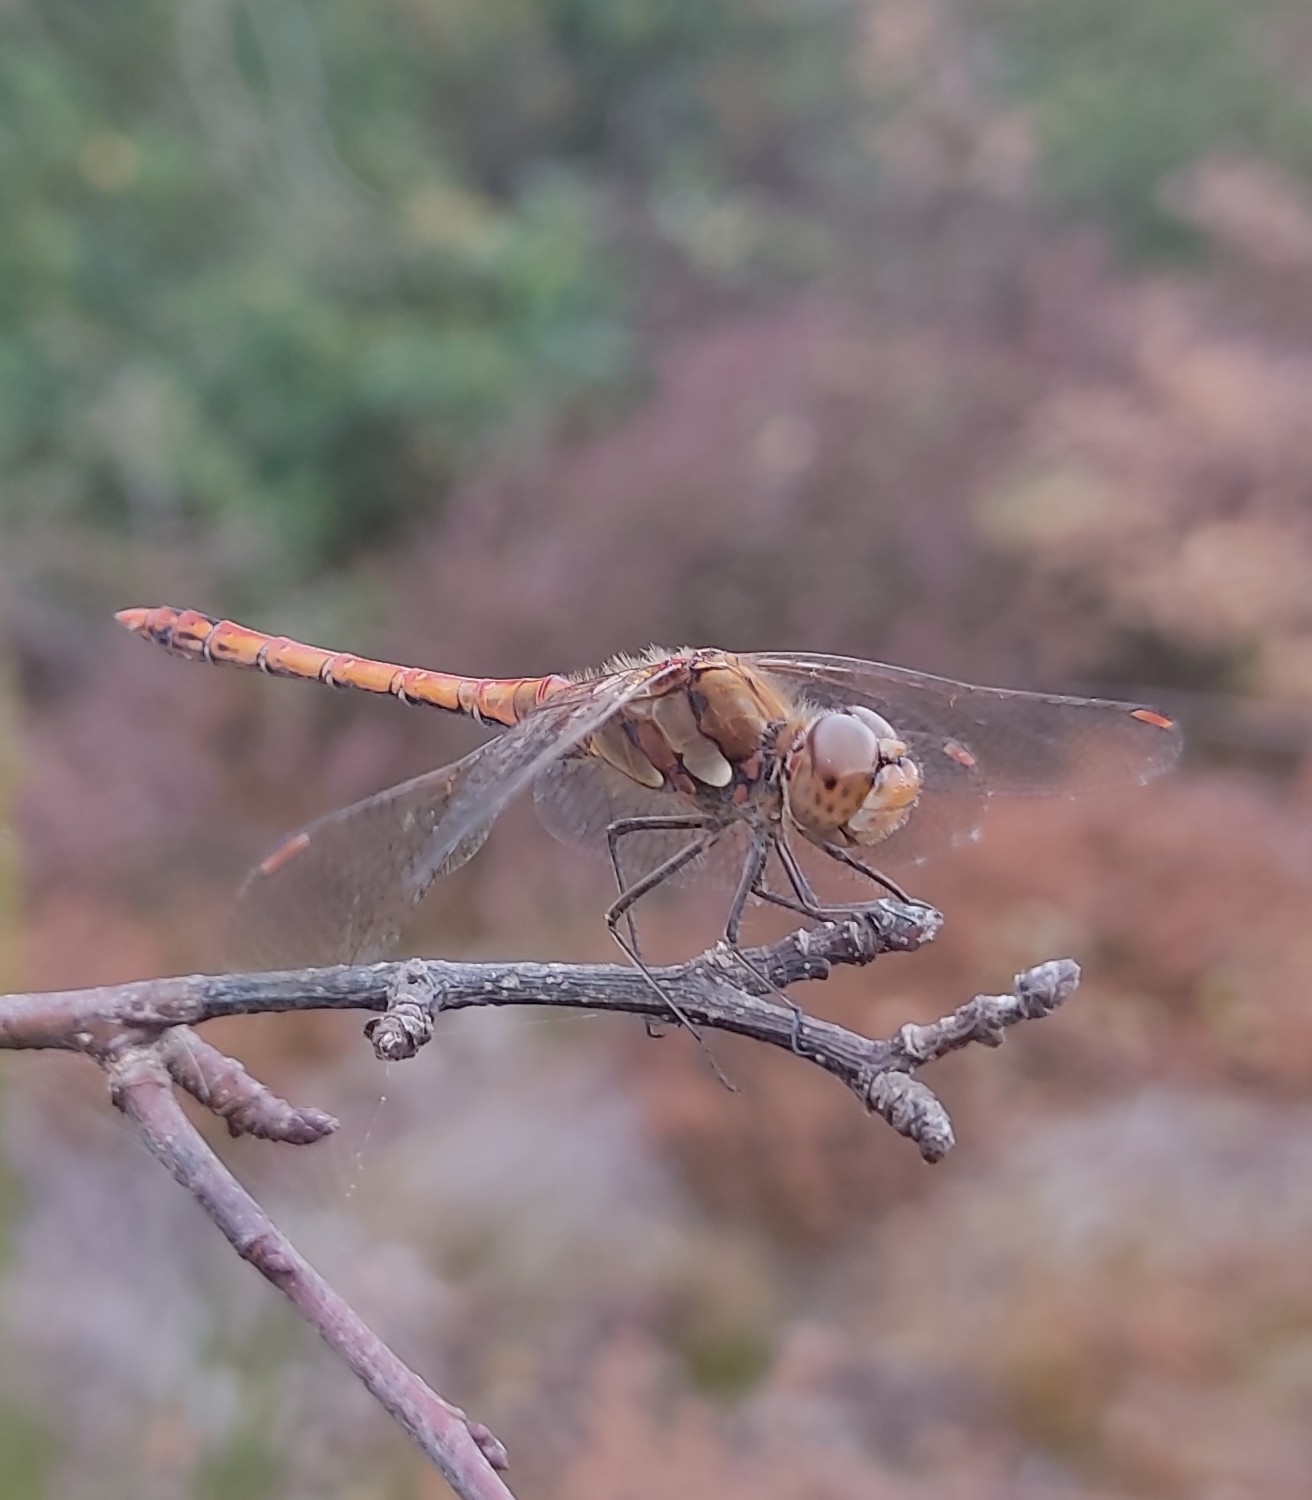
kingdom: Animalia
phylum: Arthropoda
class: Insecta
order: Odonata
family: Libellulidae
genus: Sympetrum
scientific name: Sympetrum striolatum
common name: Common darter
